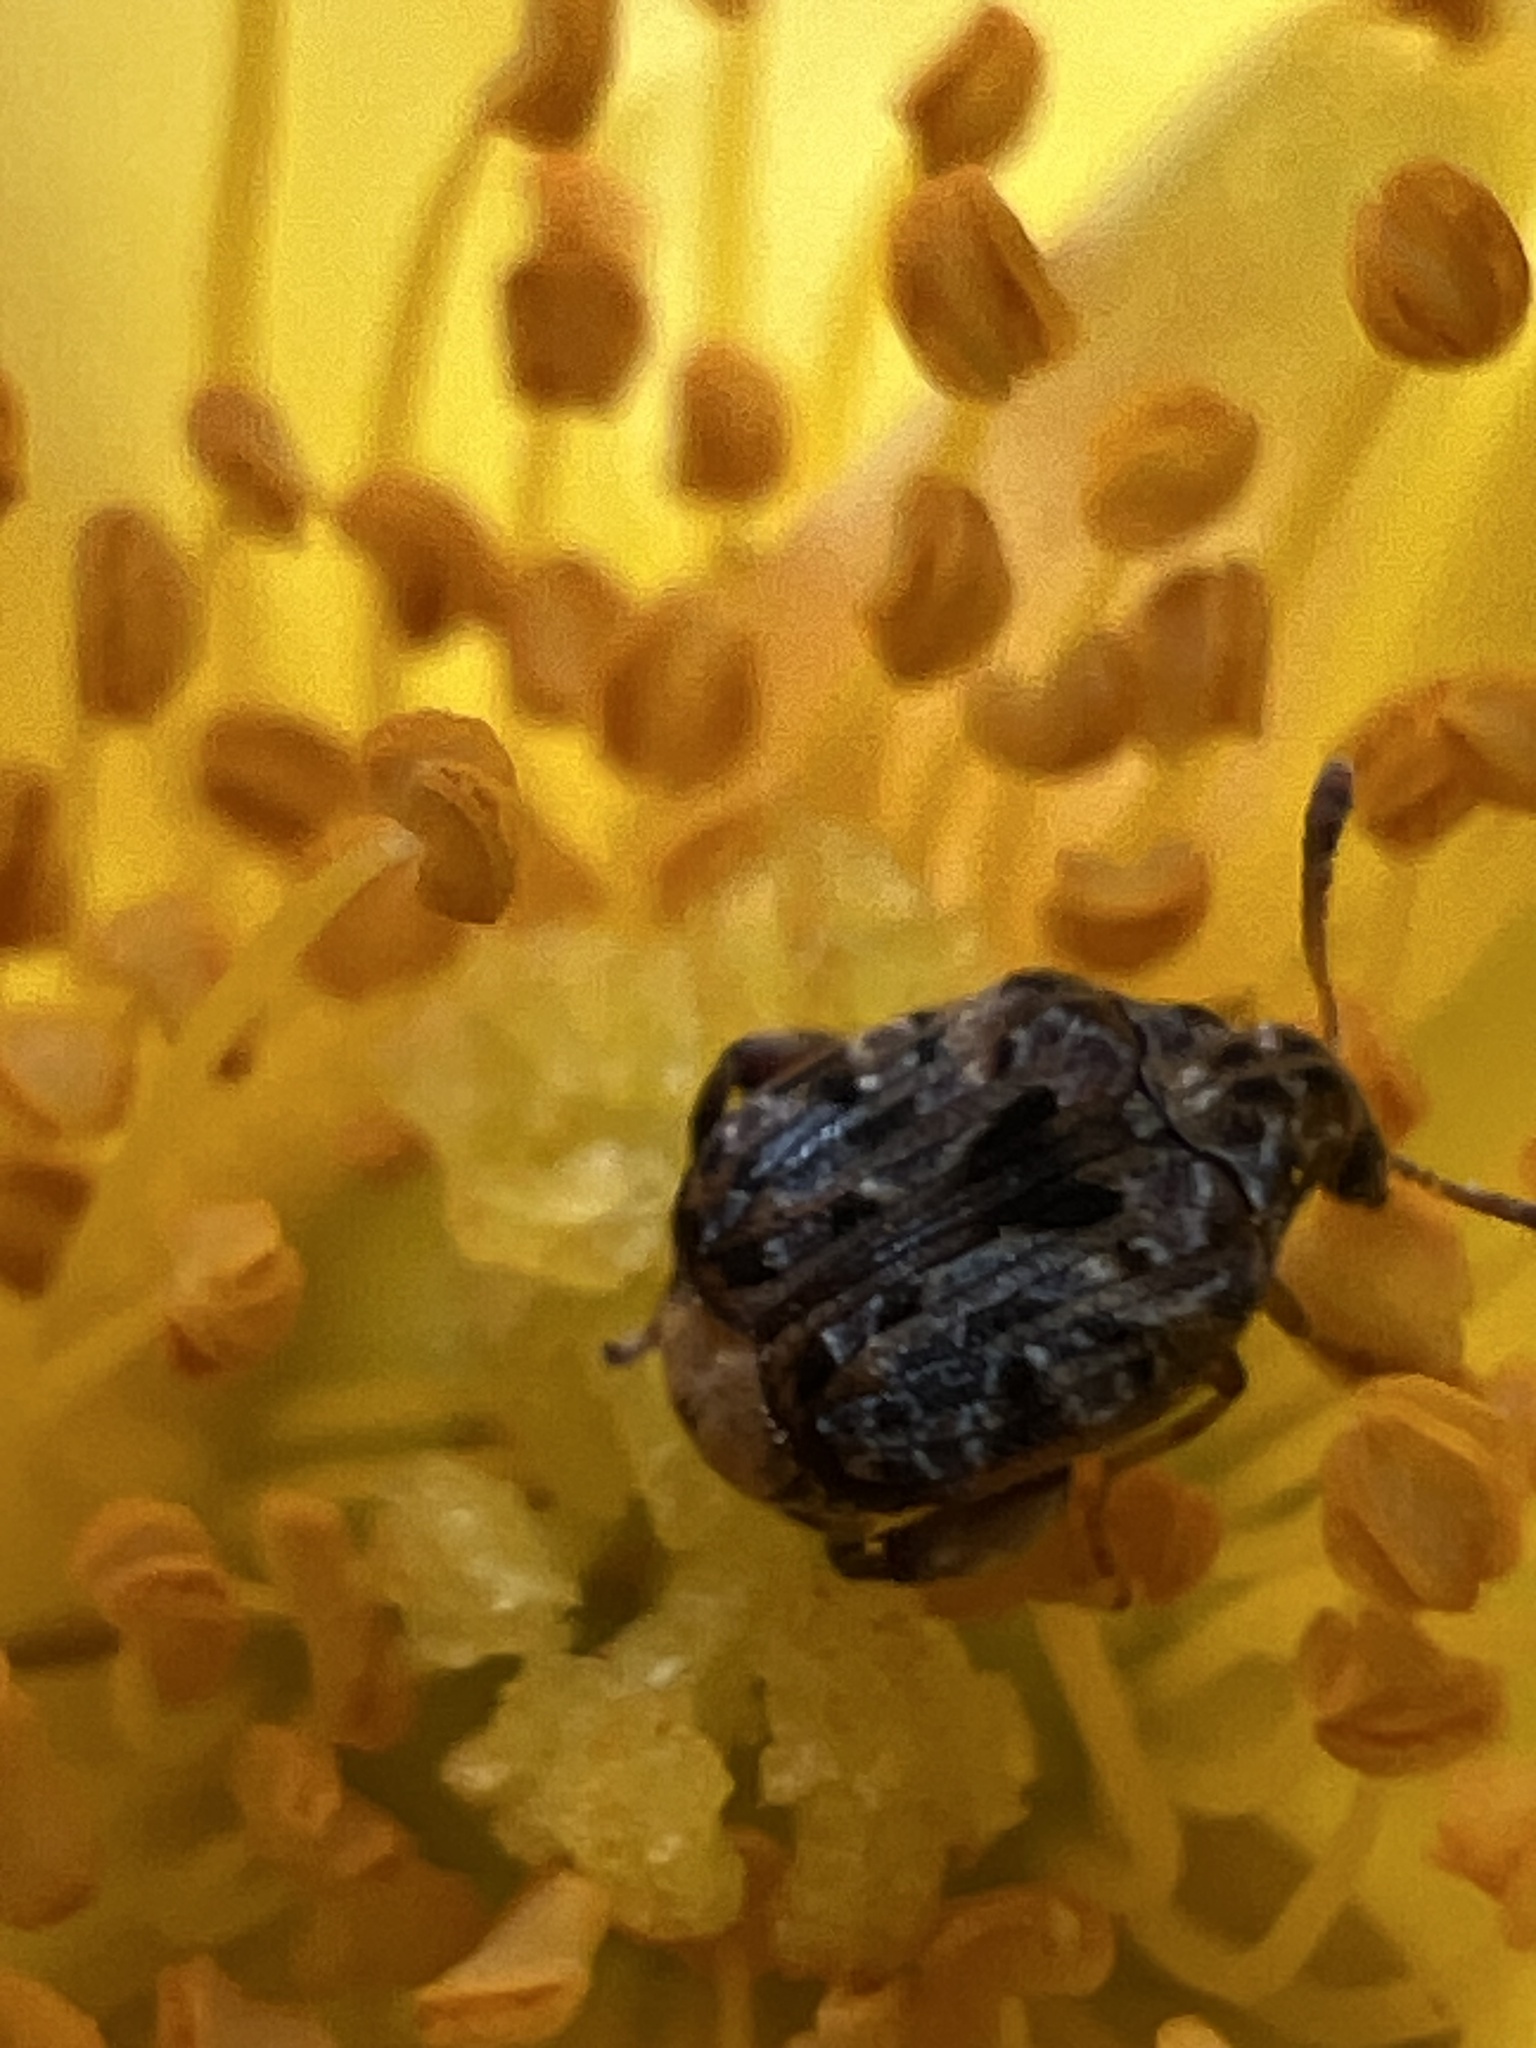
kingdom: Animalia
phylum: Arthropoda
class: Insecta
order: Coleoptera
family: Chrysomelidae
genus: Gibbobruchus
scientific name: Gibbobruchus mimus
